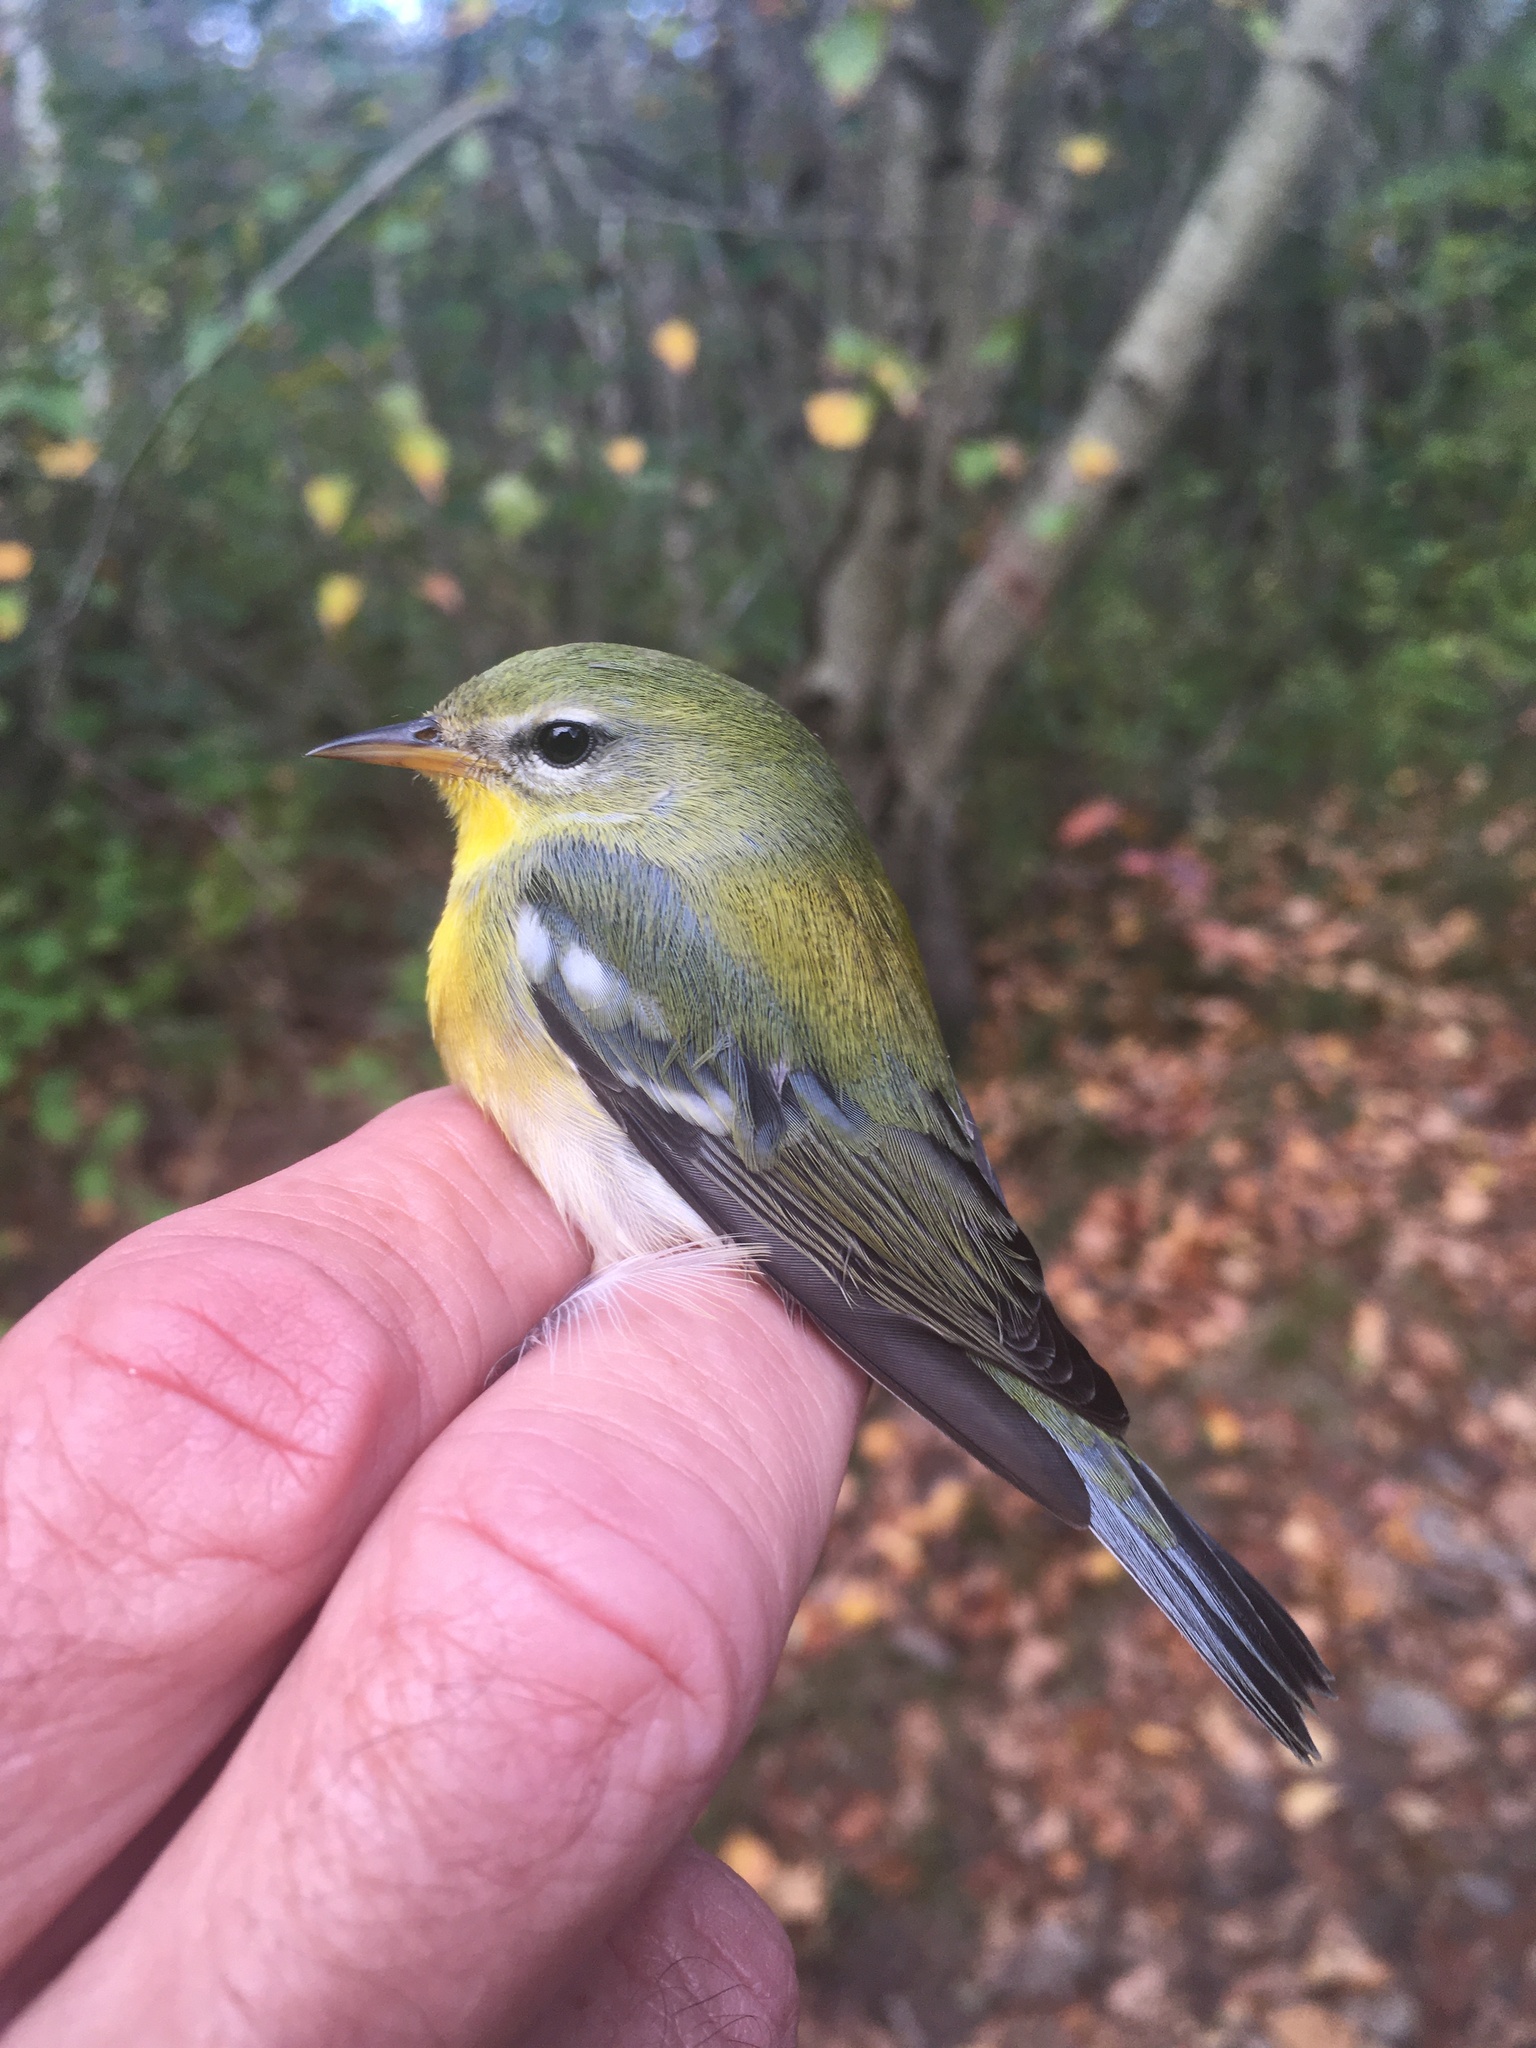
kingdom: Animalia
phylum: Chordata
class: Aves
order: Passeriformes
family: Parulidae
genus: Setophaga
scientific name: Setophaga americana
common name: Northern parula
